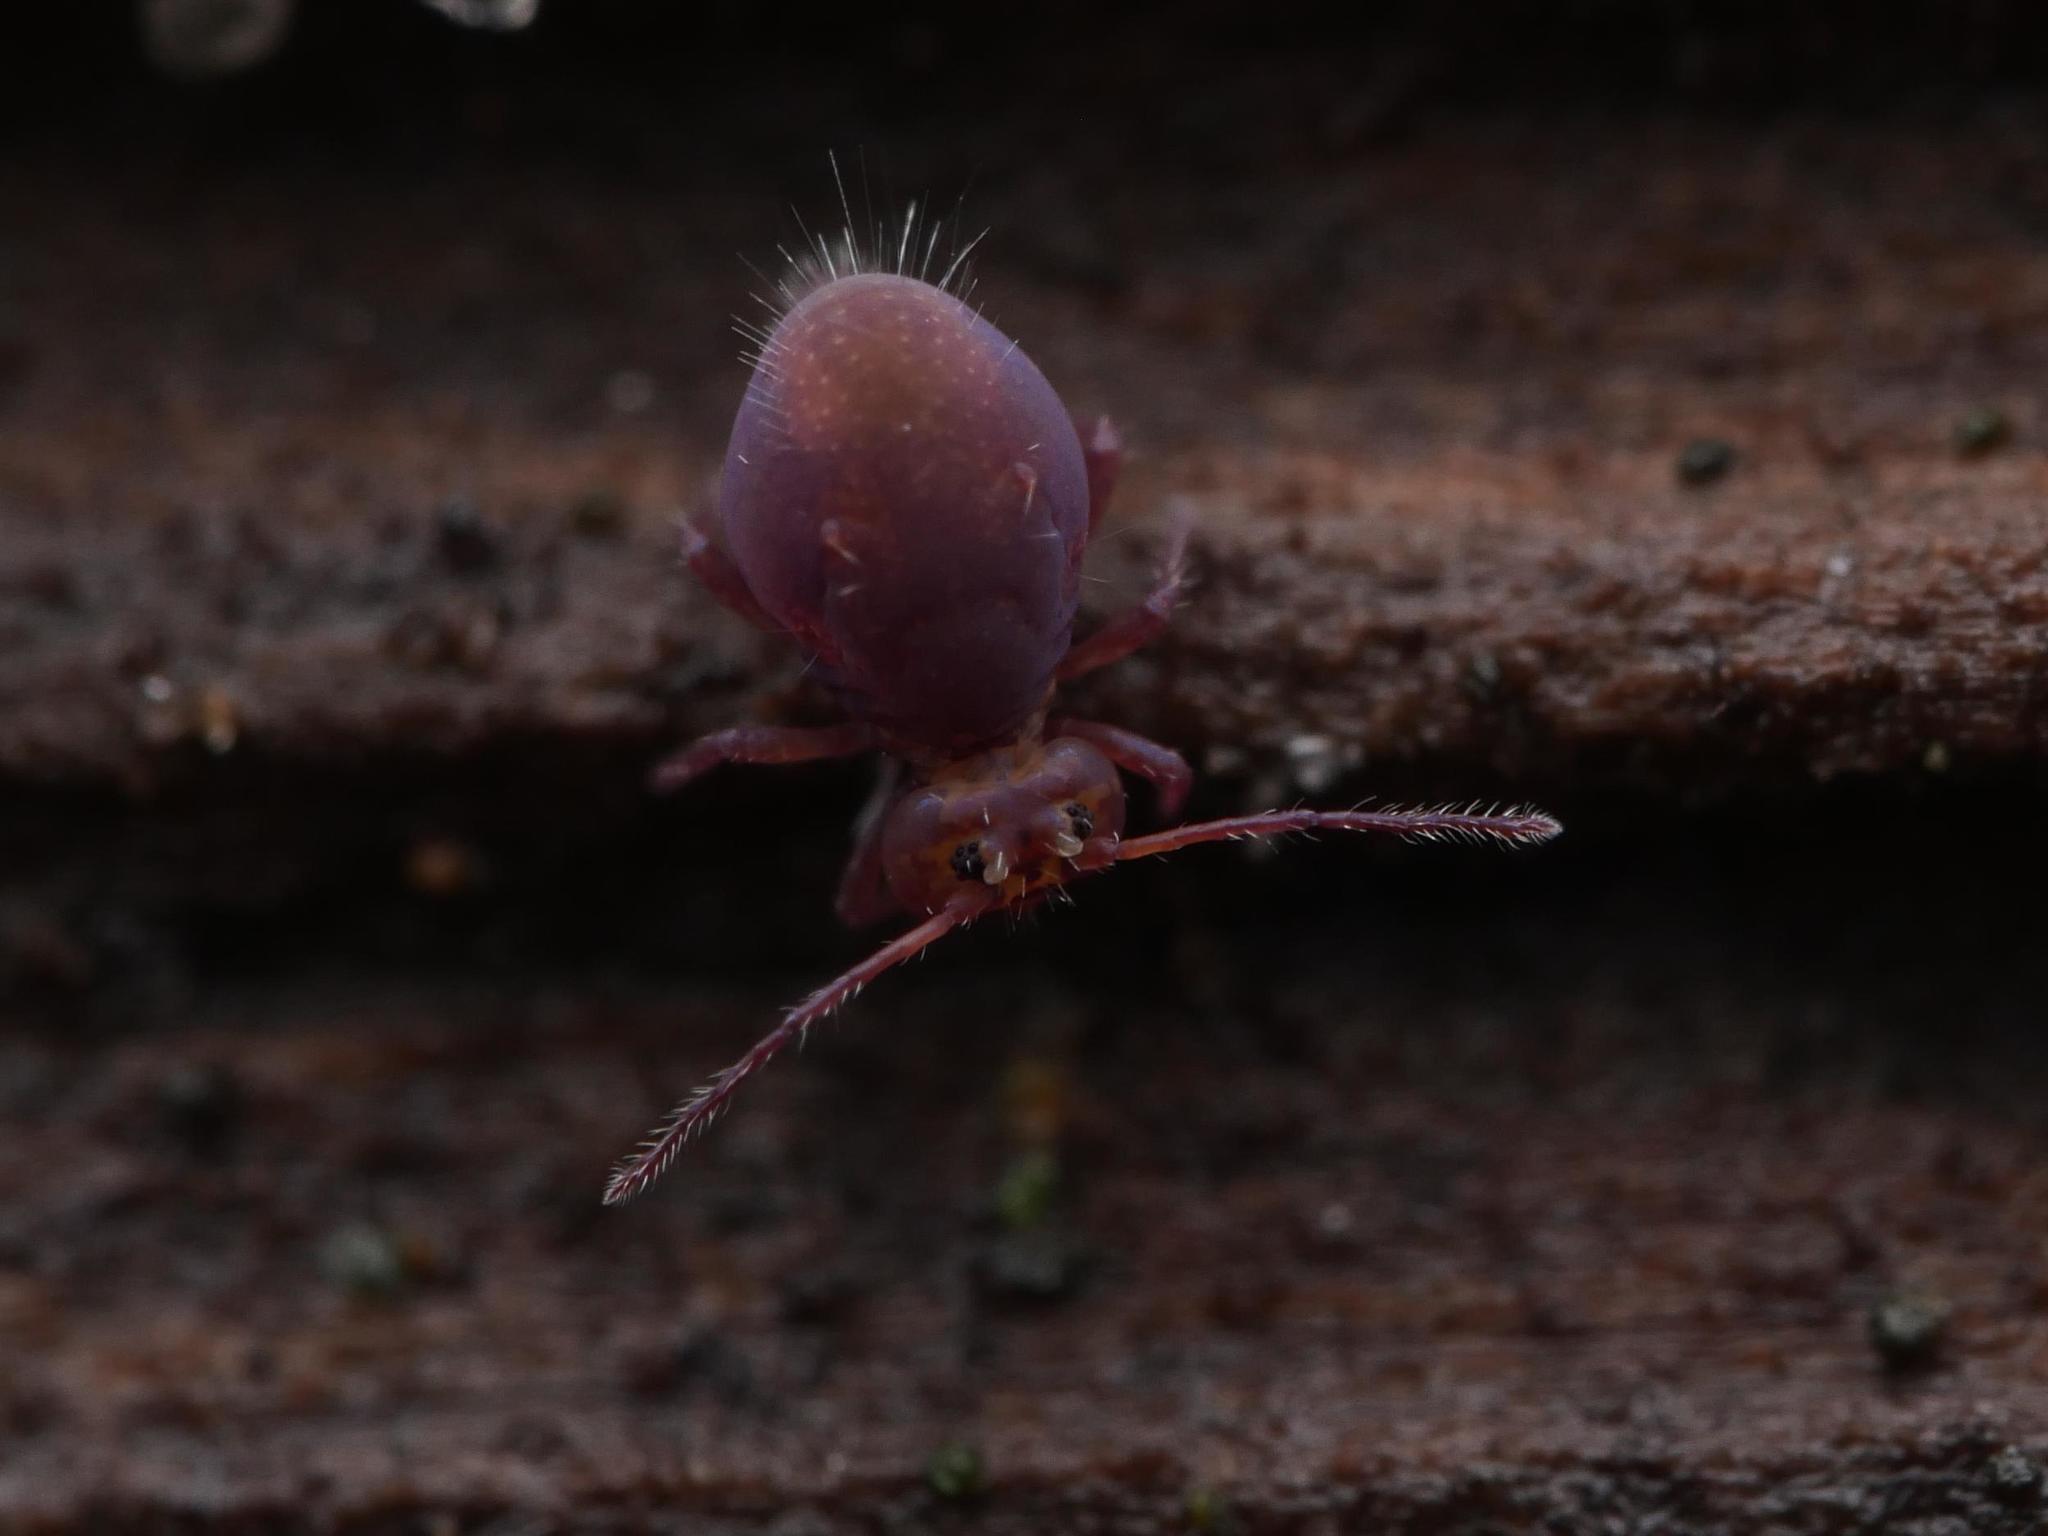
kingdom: Animalia
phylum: Arthropoda
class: Collembola
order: Symphypleona
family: Dicyrtomidae
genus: Dicyrtoma
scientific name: Dicyrtoma fusca
